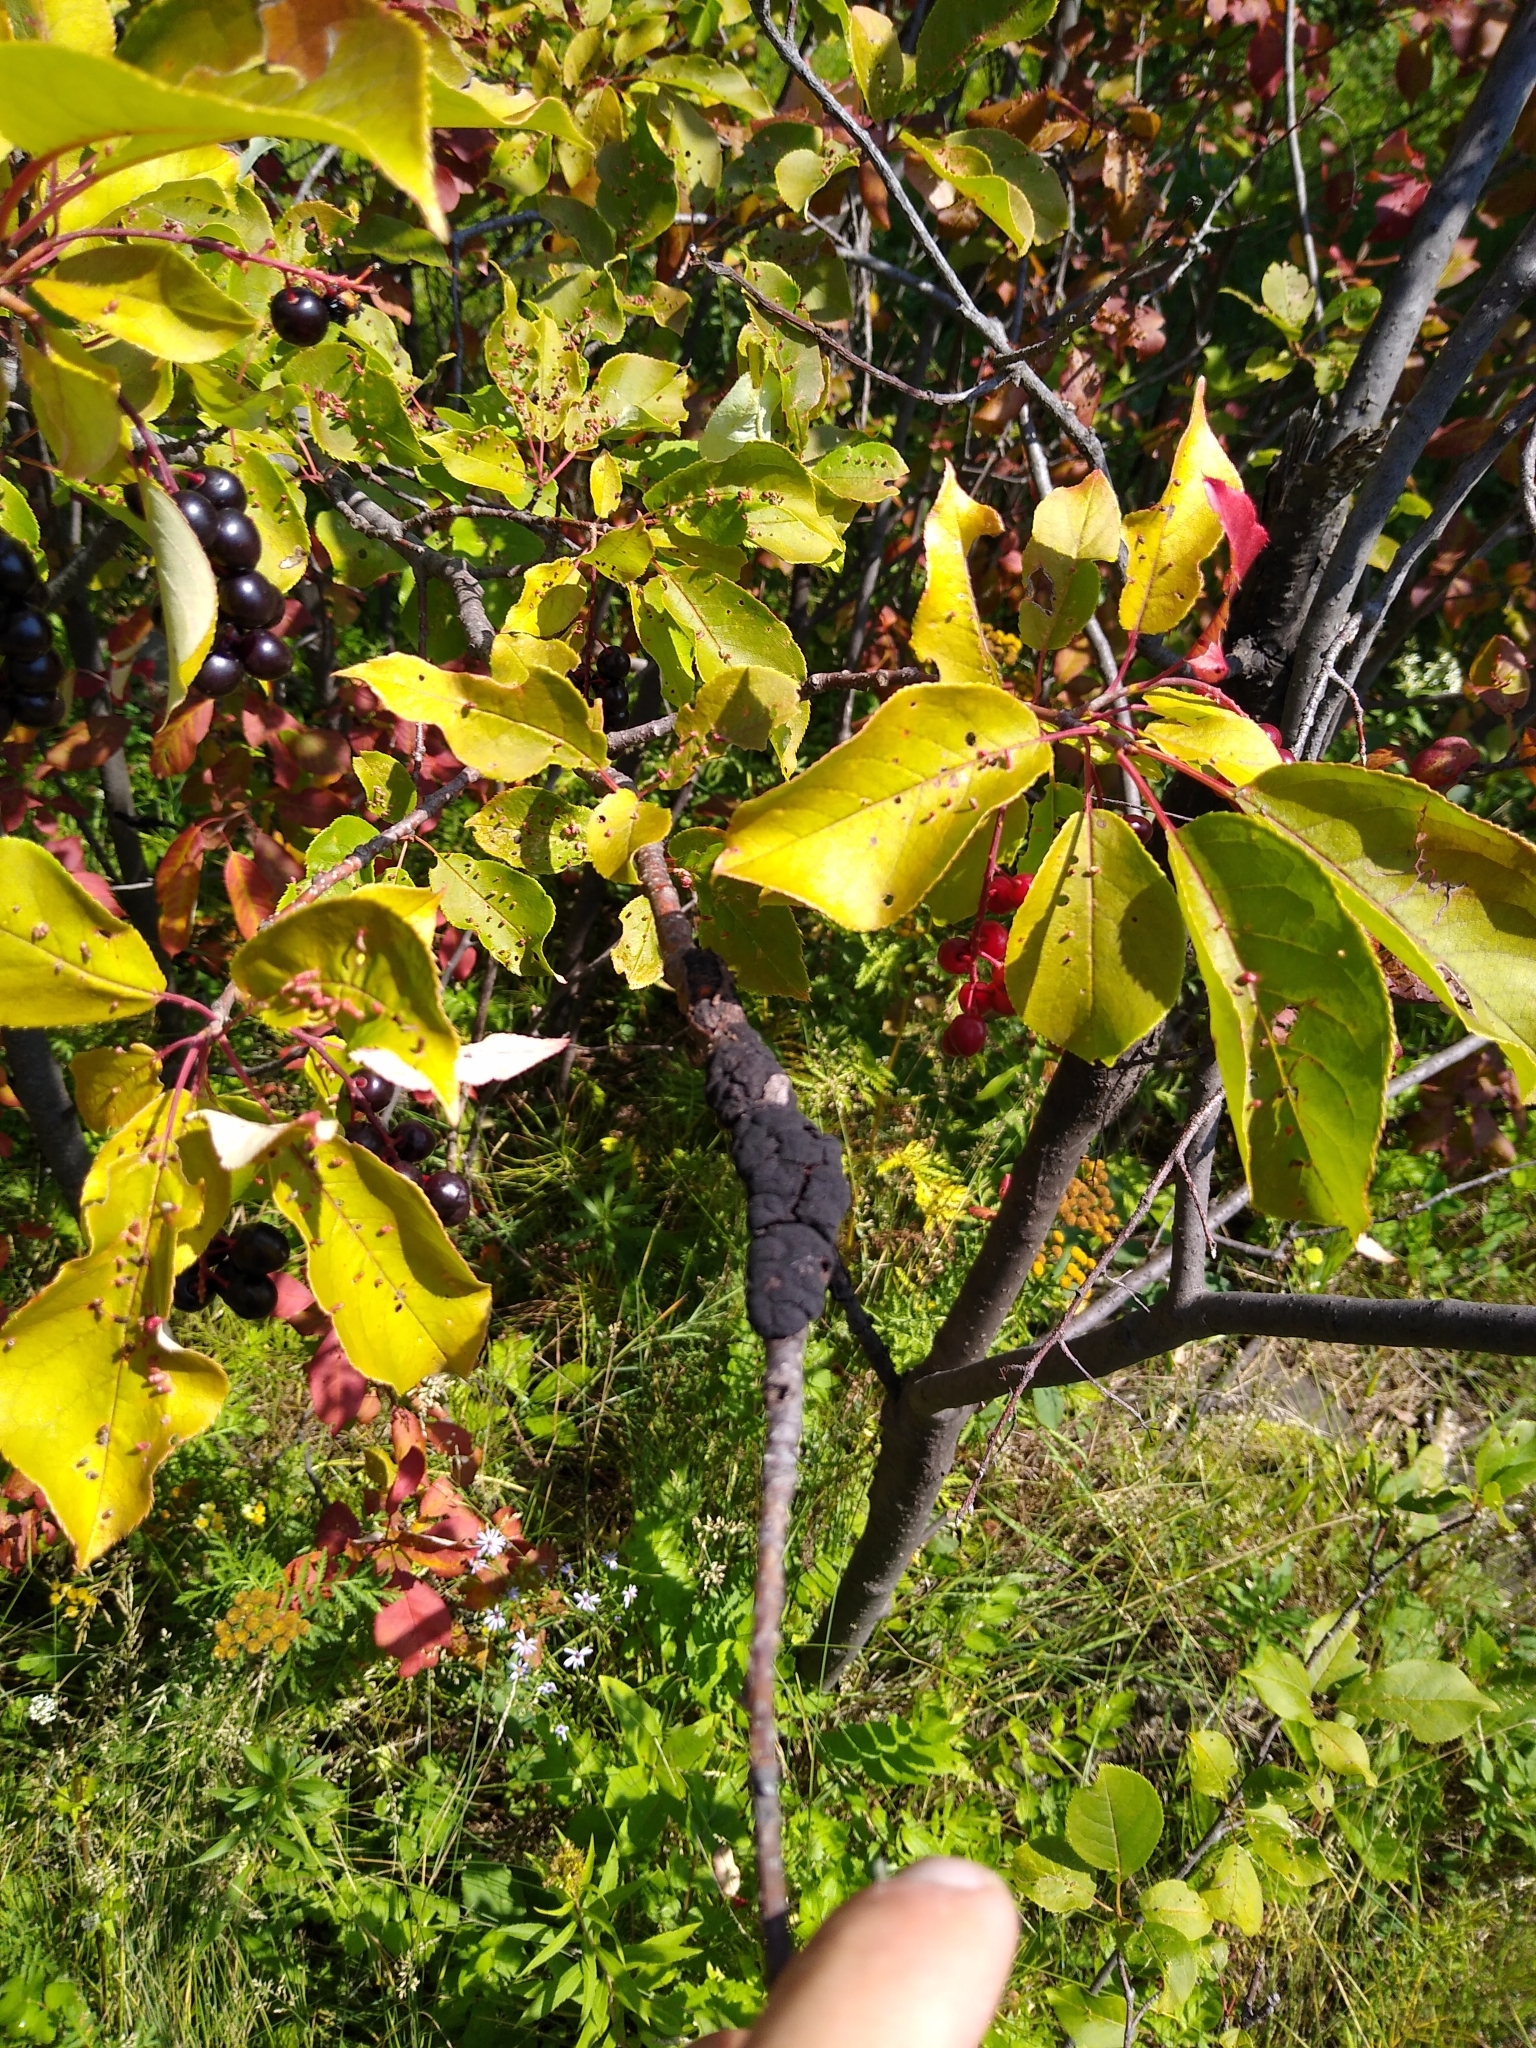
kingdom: Plantae
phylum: Tracheophyta
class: Magnoliopsida
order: Rosales
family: Rosaceae
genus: Prunus
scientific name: Prunus virginiana
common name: Chokecherry
